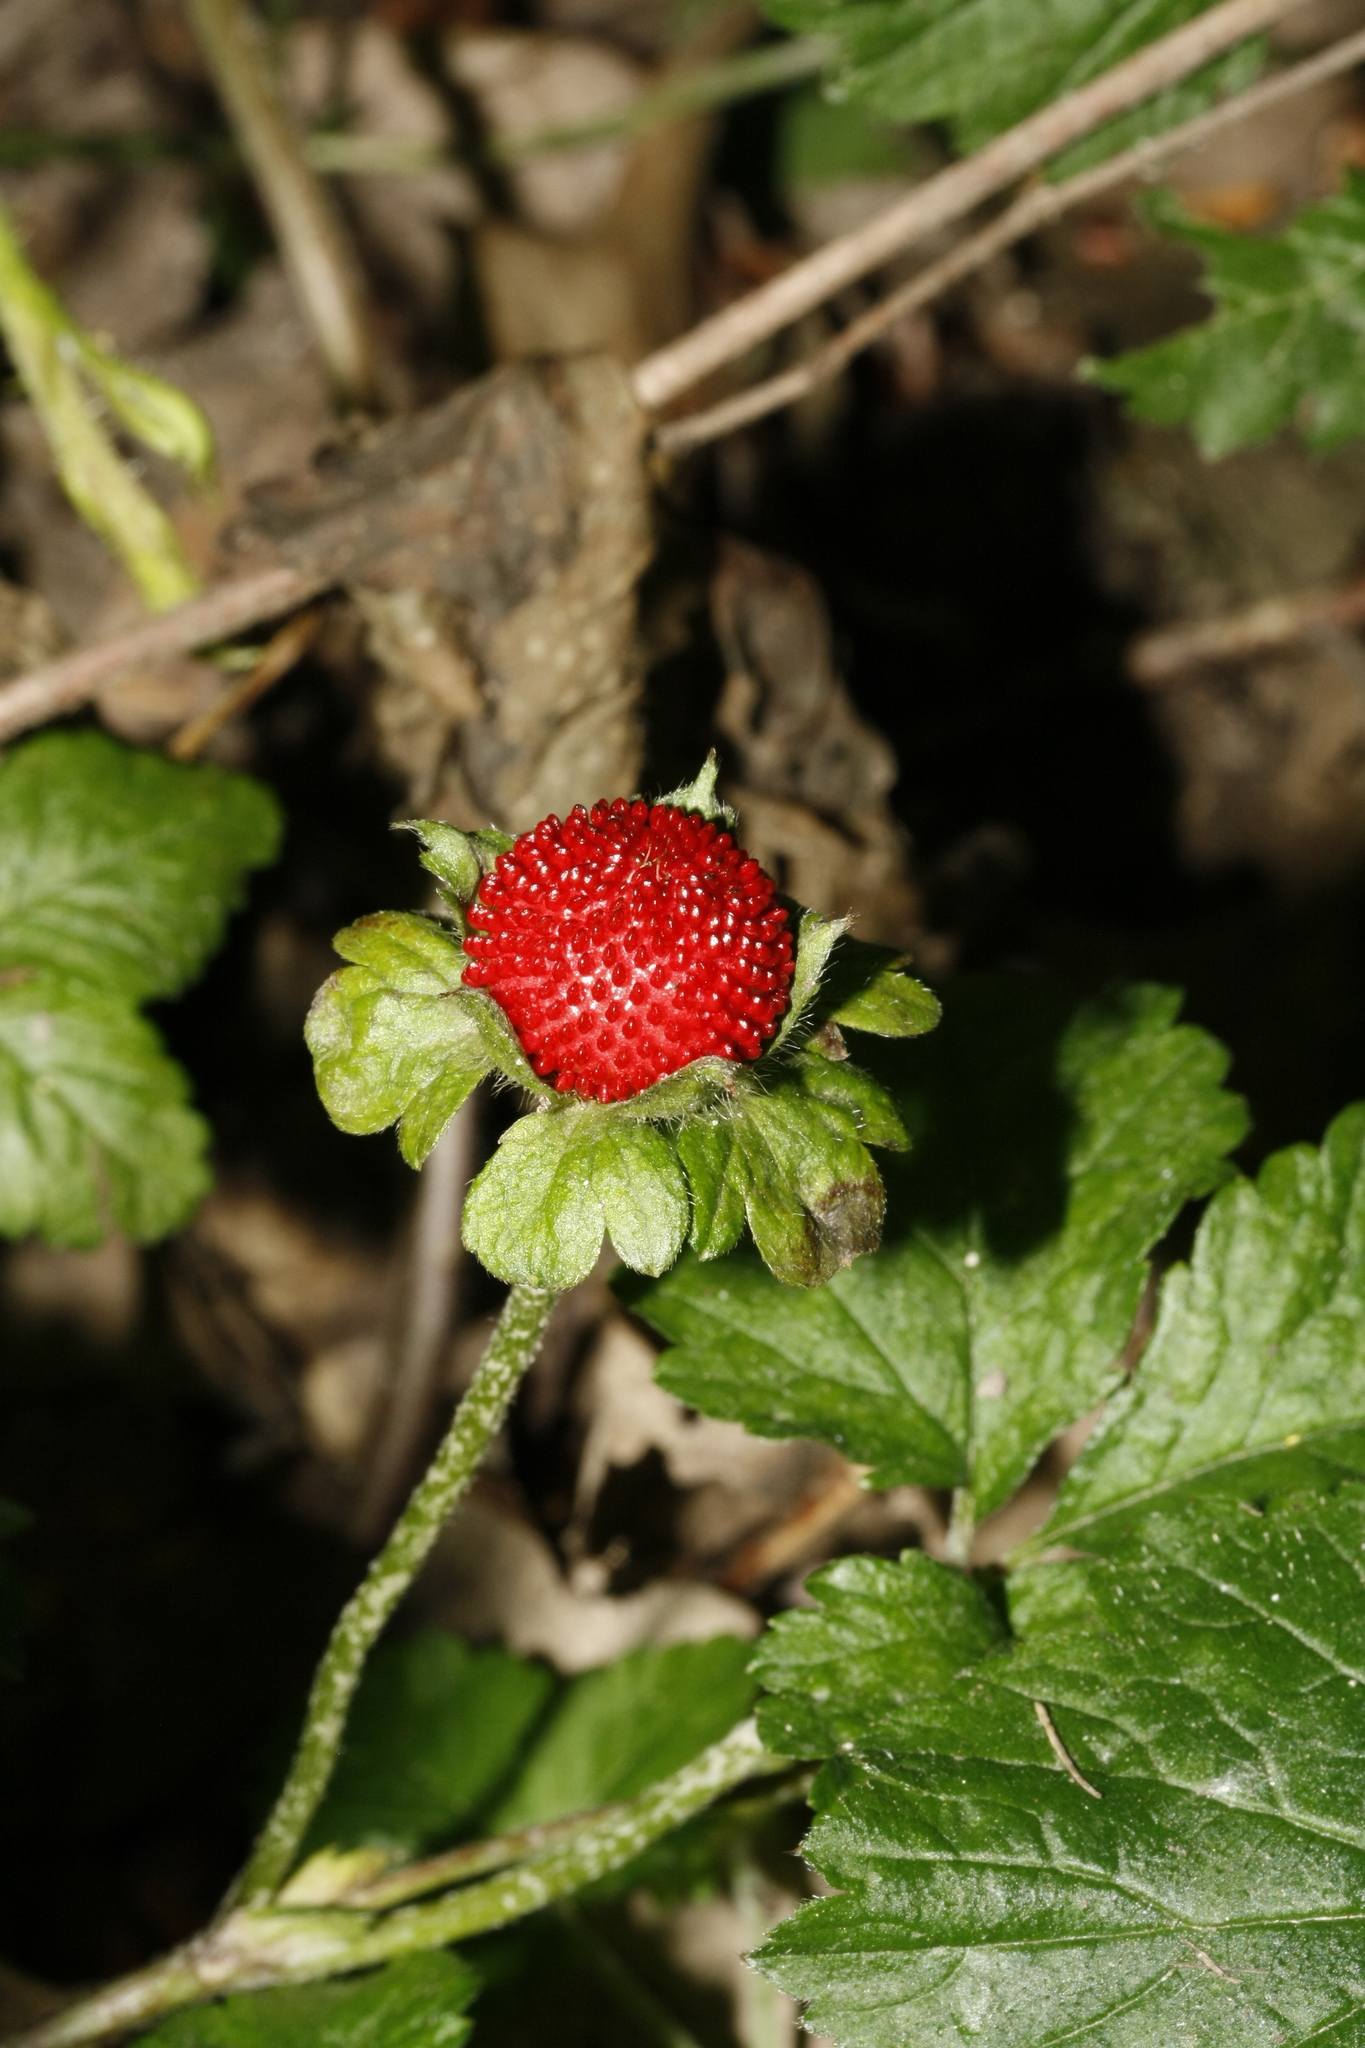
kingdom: Plantae
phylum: Tracheophyta
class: Magnoliopsida
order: Rosales
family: Rosaceae
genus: Potentilla
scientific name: Potentilla indica
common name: Yellow-flowered strawberry
